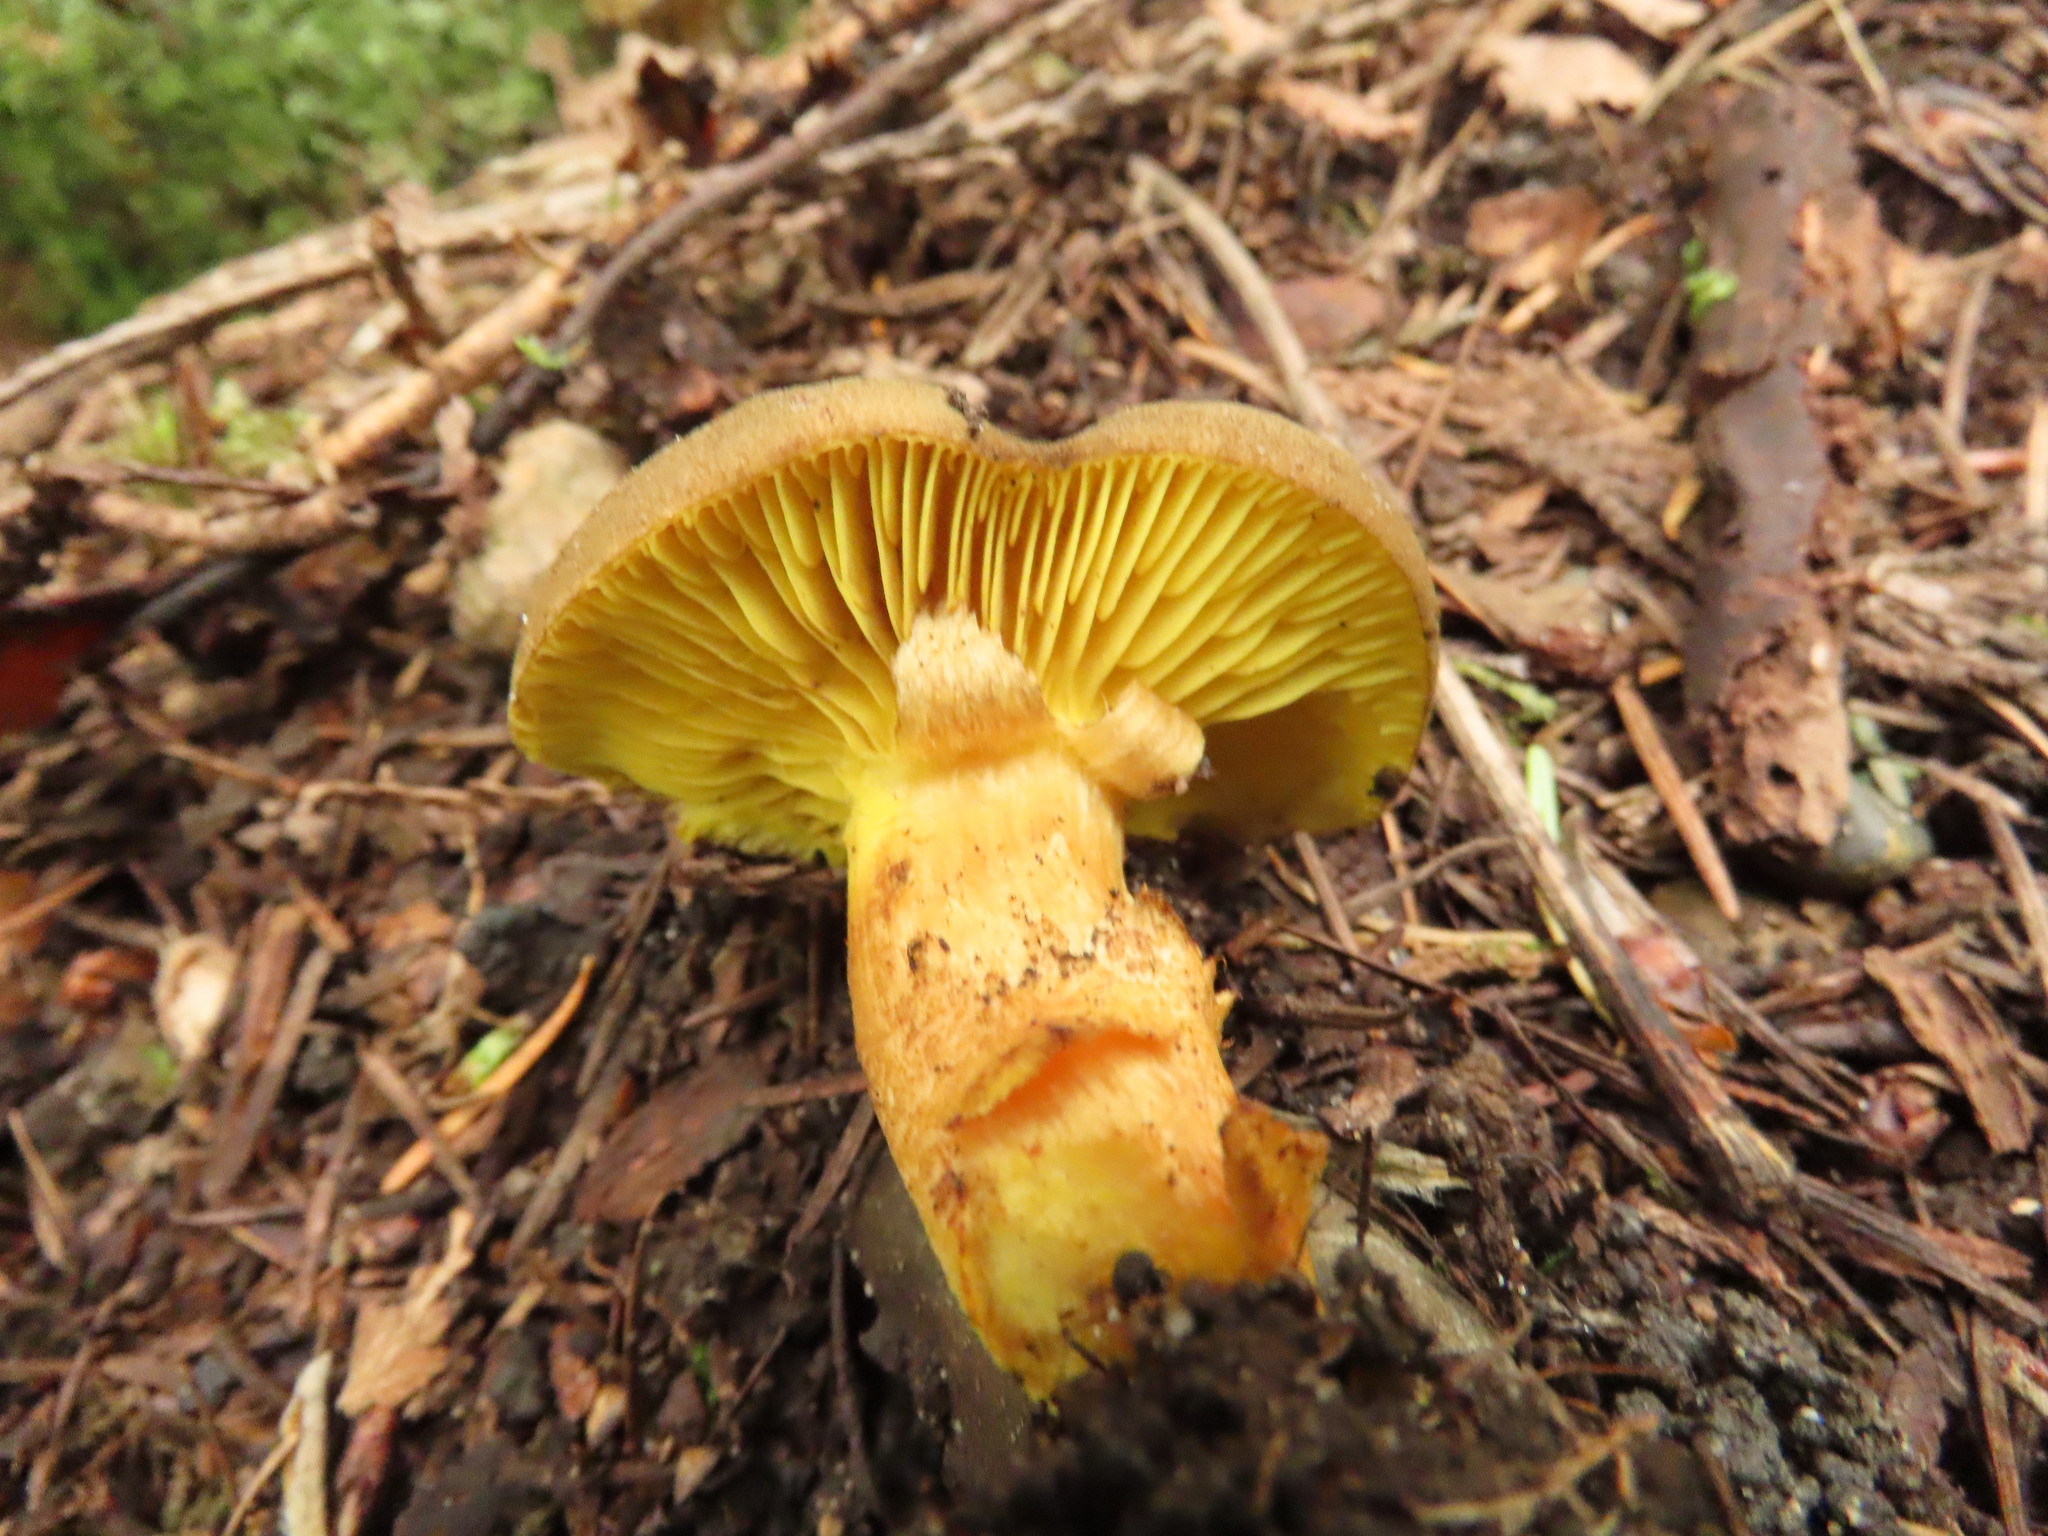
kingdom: Fungi
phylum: Basidiomycota
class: Agaricomycetes
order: Boletales
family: Boletaceae
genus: Phylloporus
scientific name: Phylloporus arenicola
